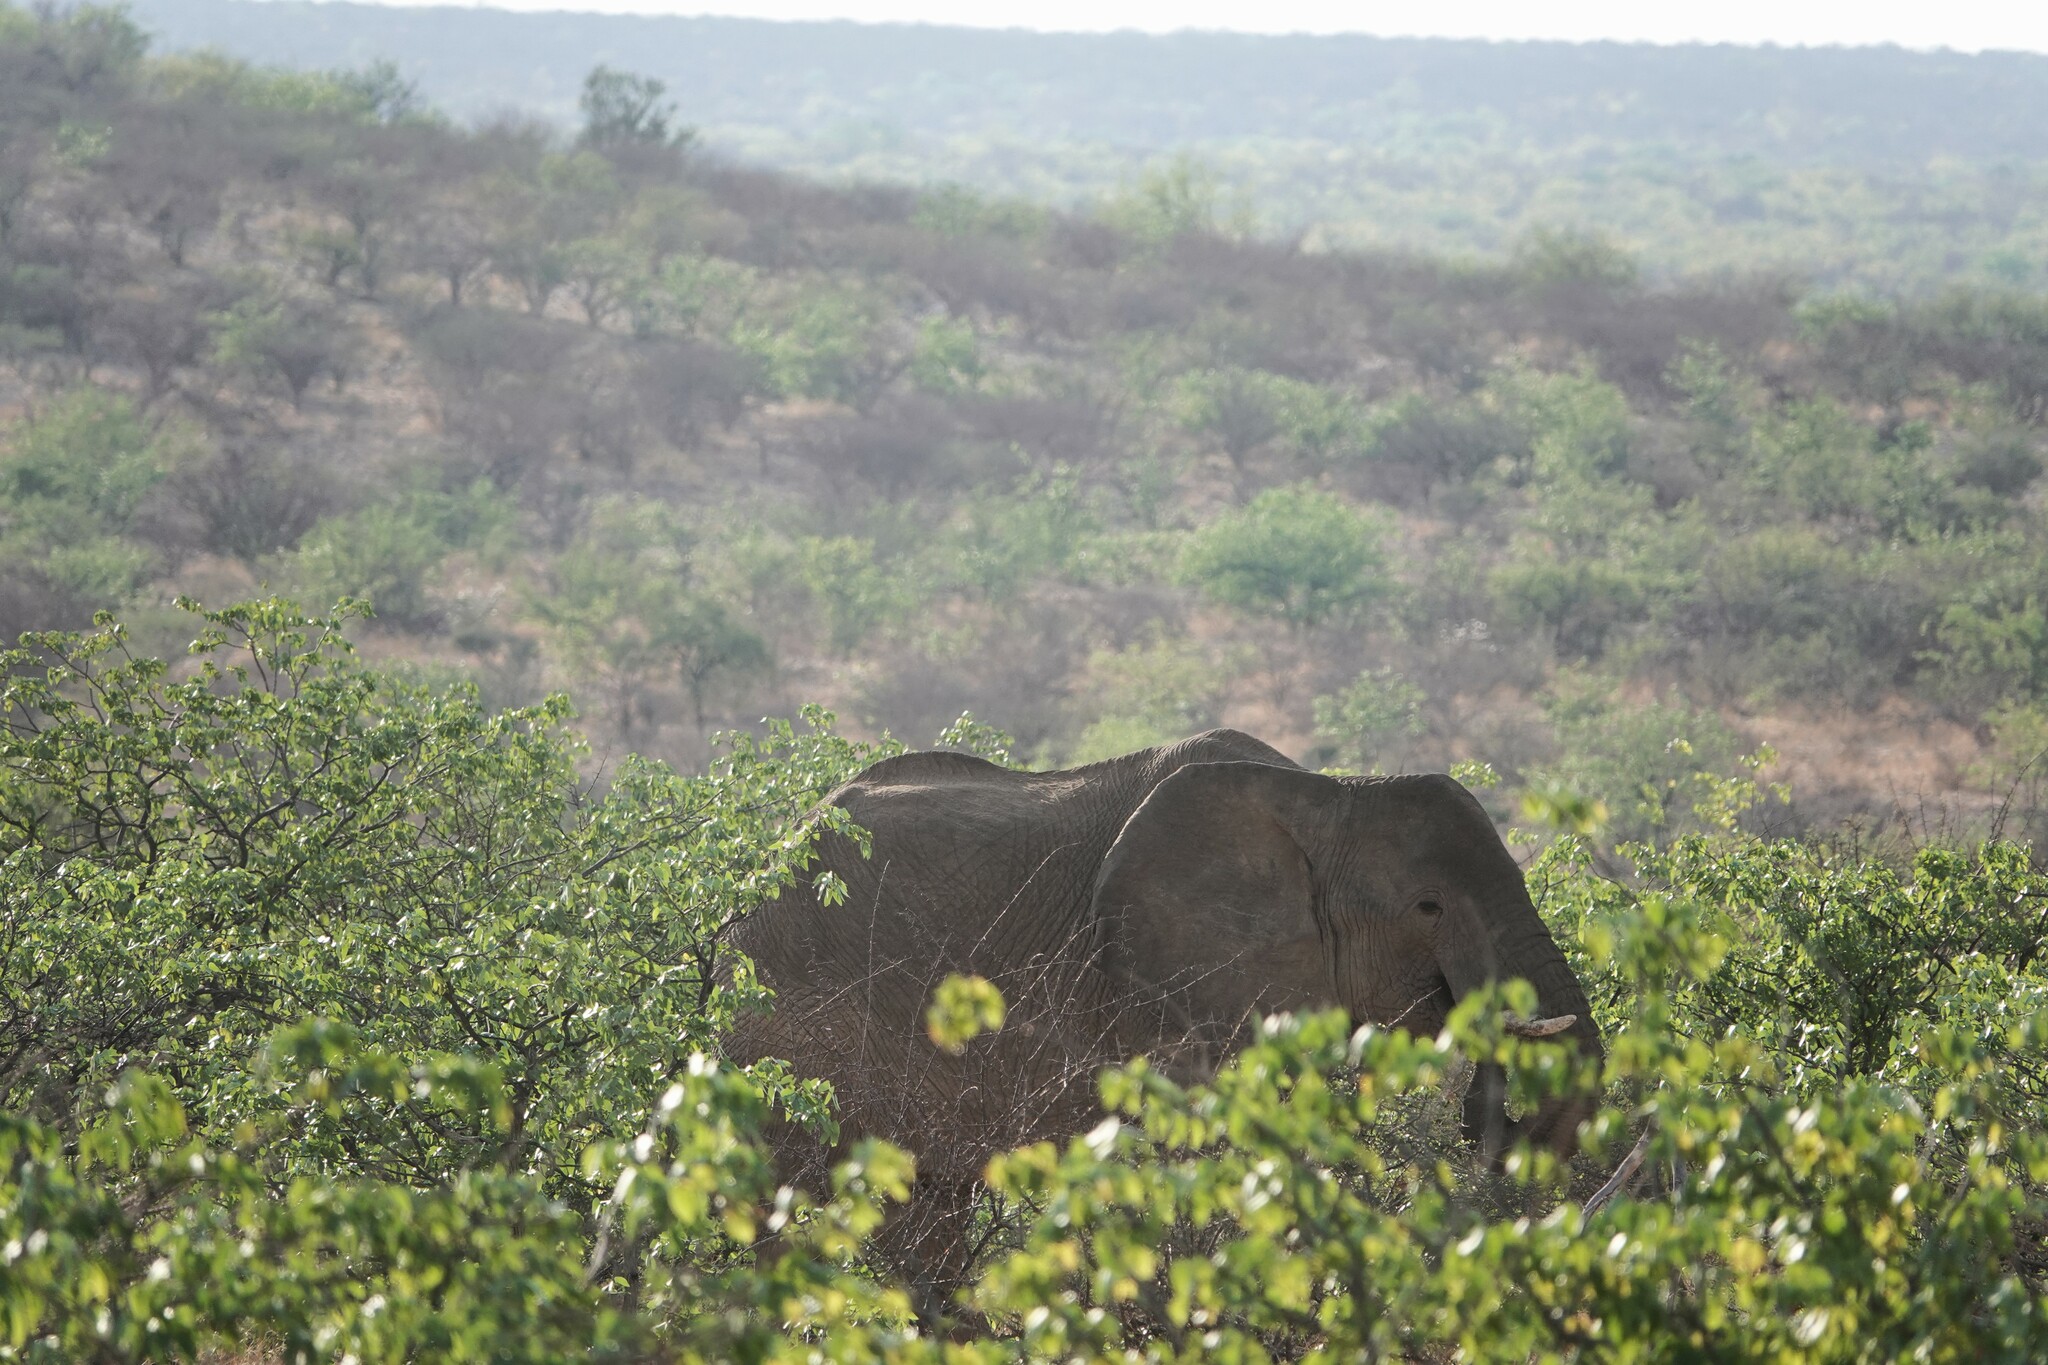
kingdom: Animalia
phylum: Chordata
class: Mammalia
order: Proboscidea
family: Elephantidae
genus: Loxodonta
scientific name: Loxodonta africana
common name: African elephant
